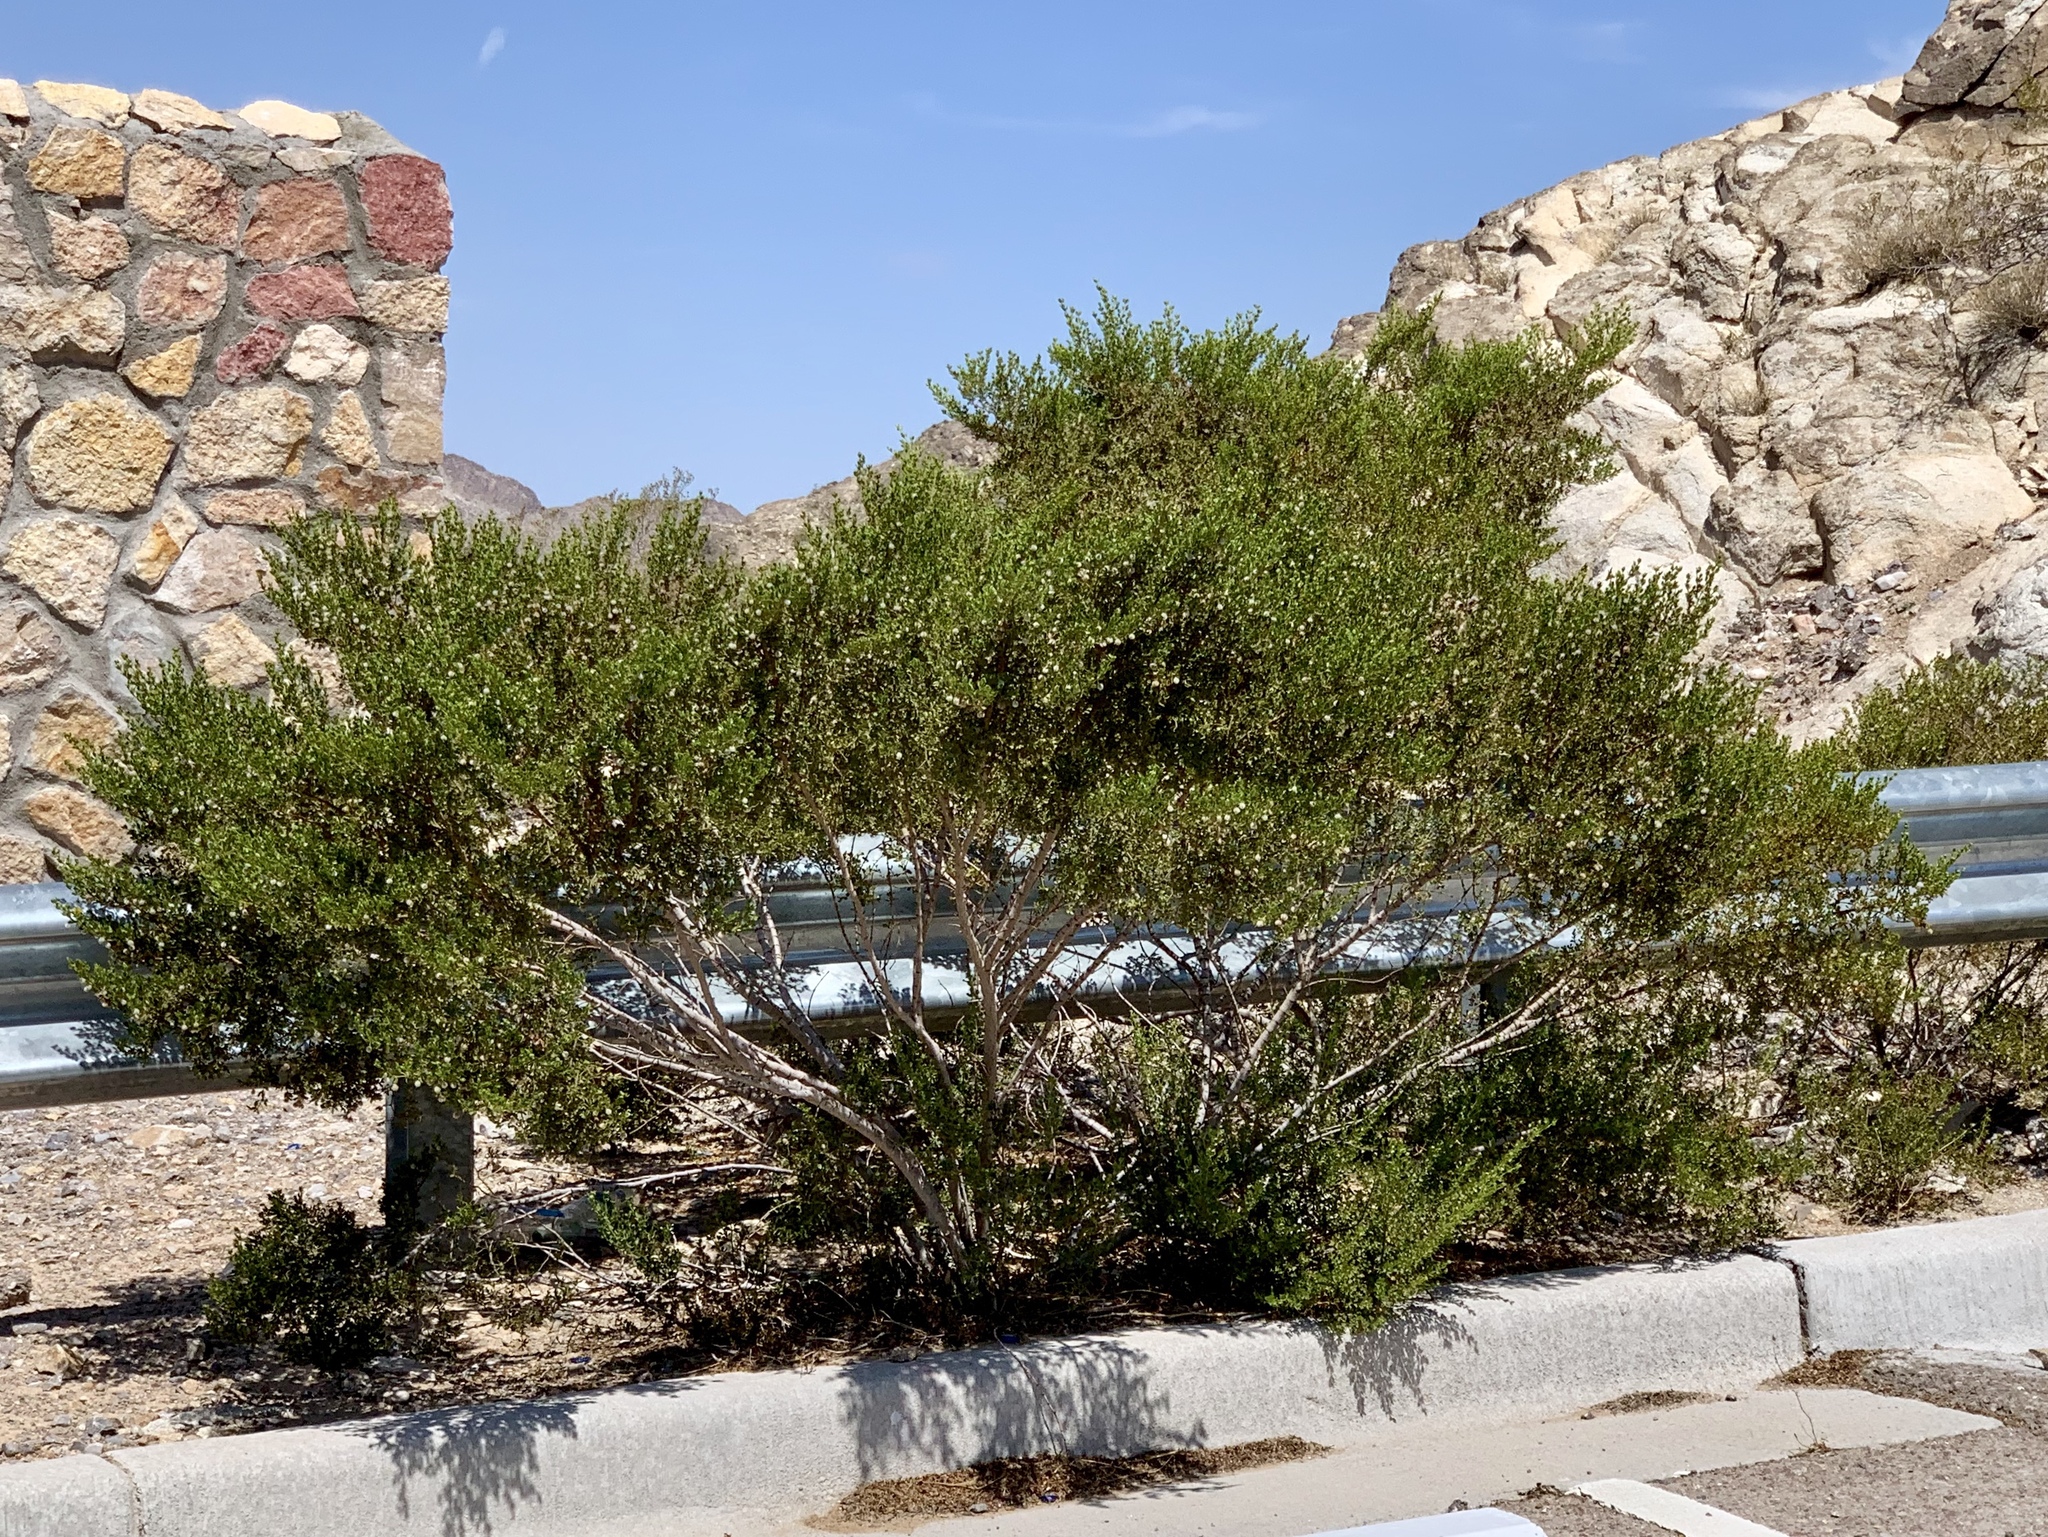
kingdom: Plantae
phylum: Tracheophyta
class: Magnoliopsida
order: Zygophyllales
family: Zygophyllaceae
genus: Larrea
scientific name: Larrea tridentata
